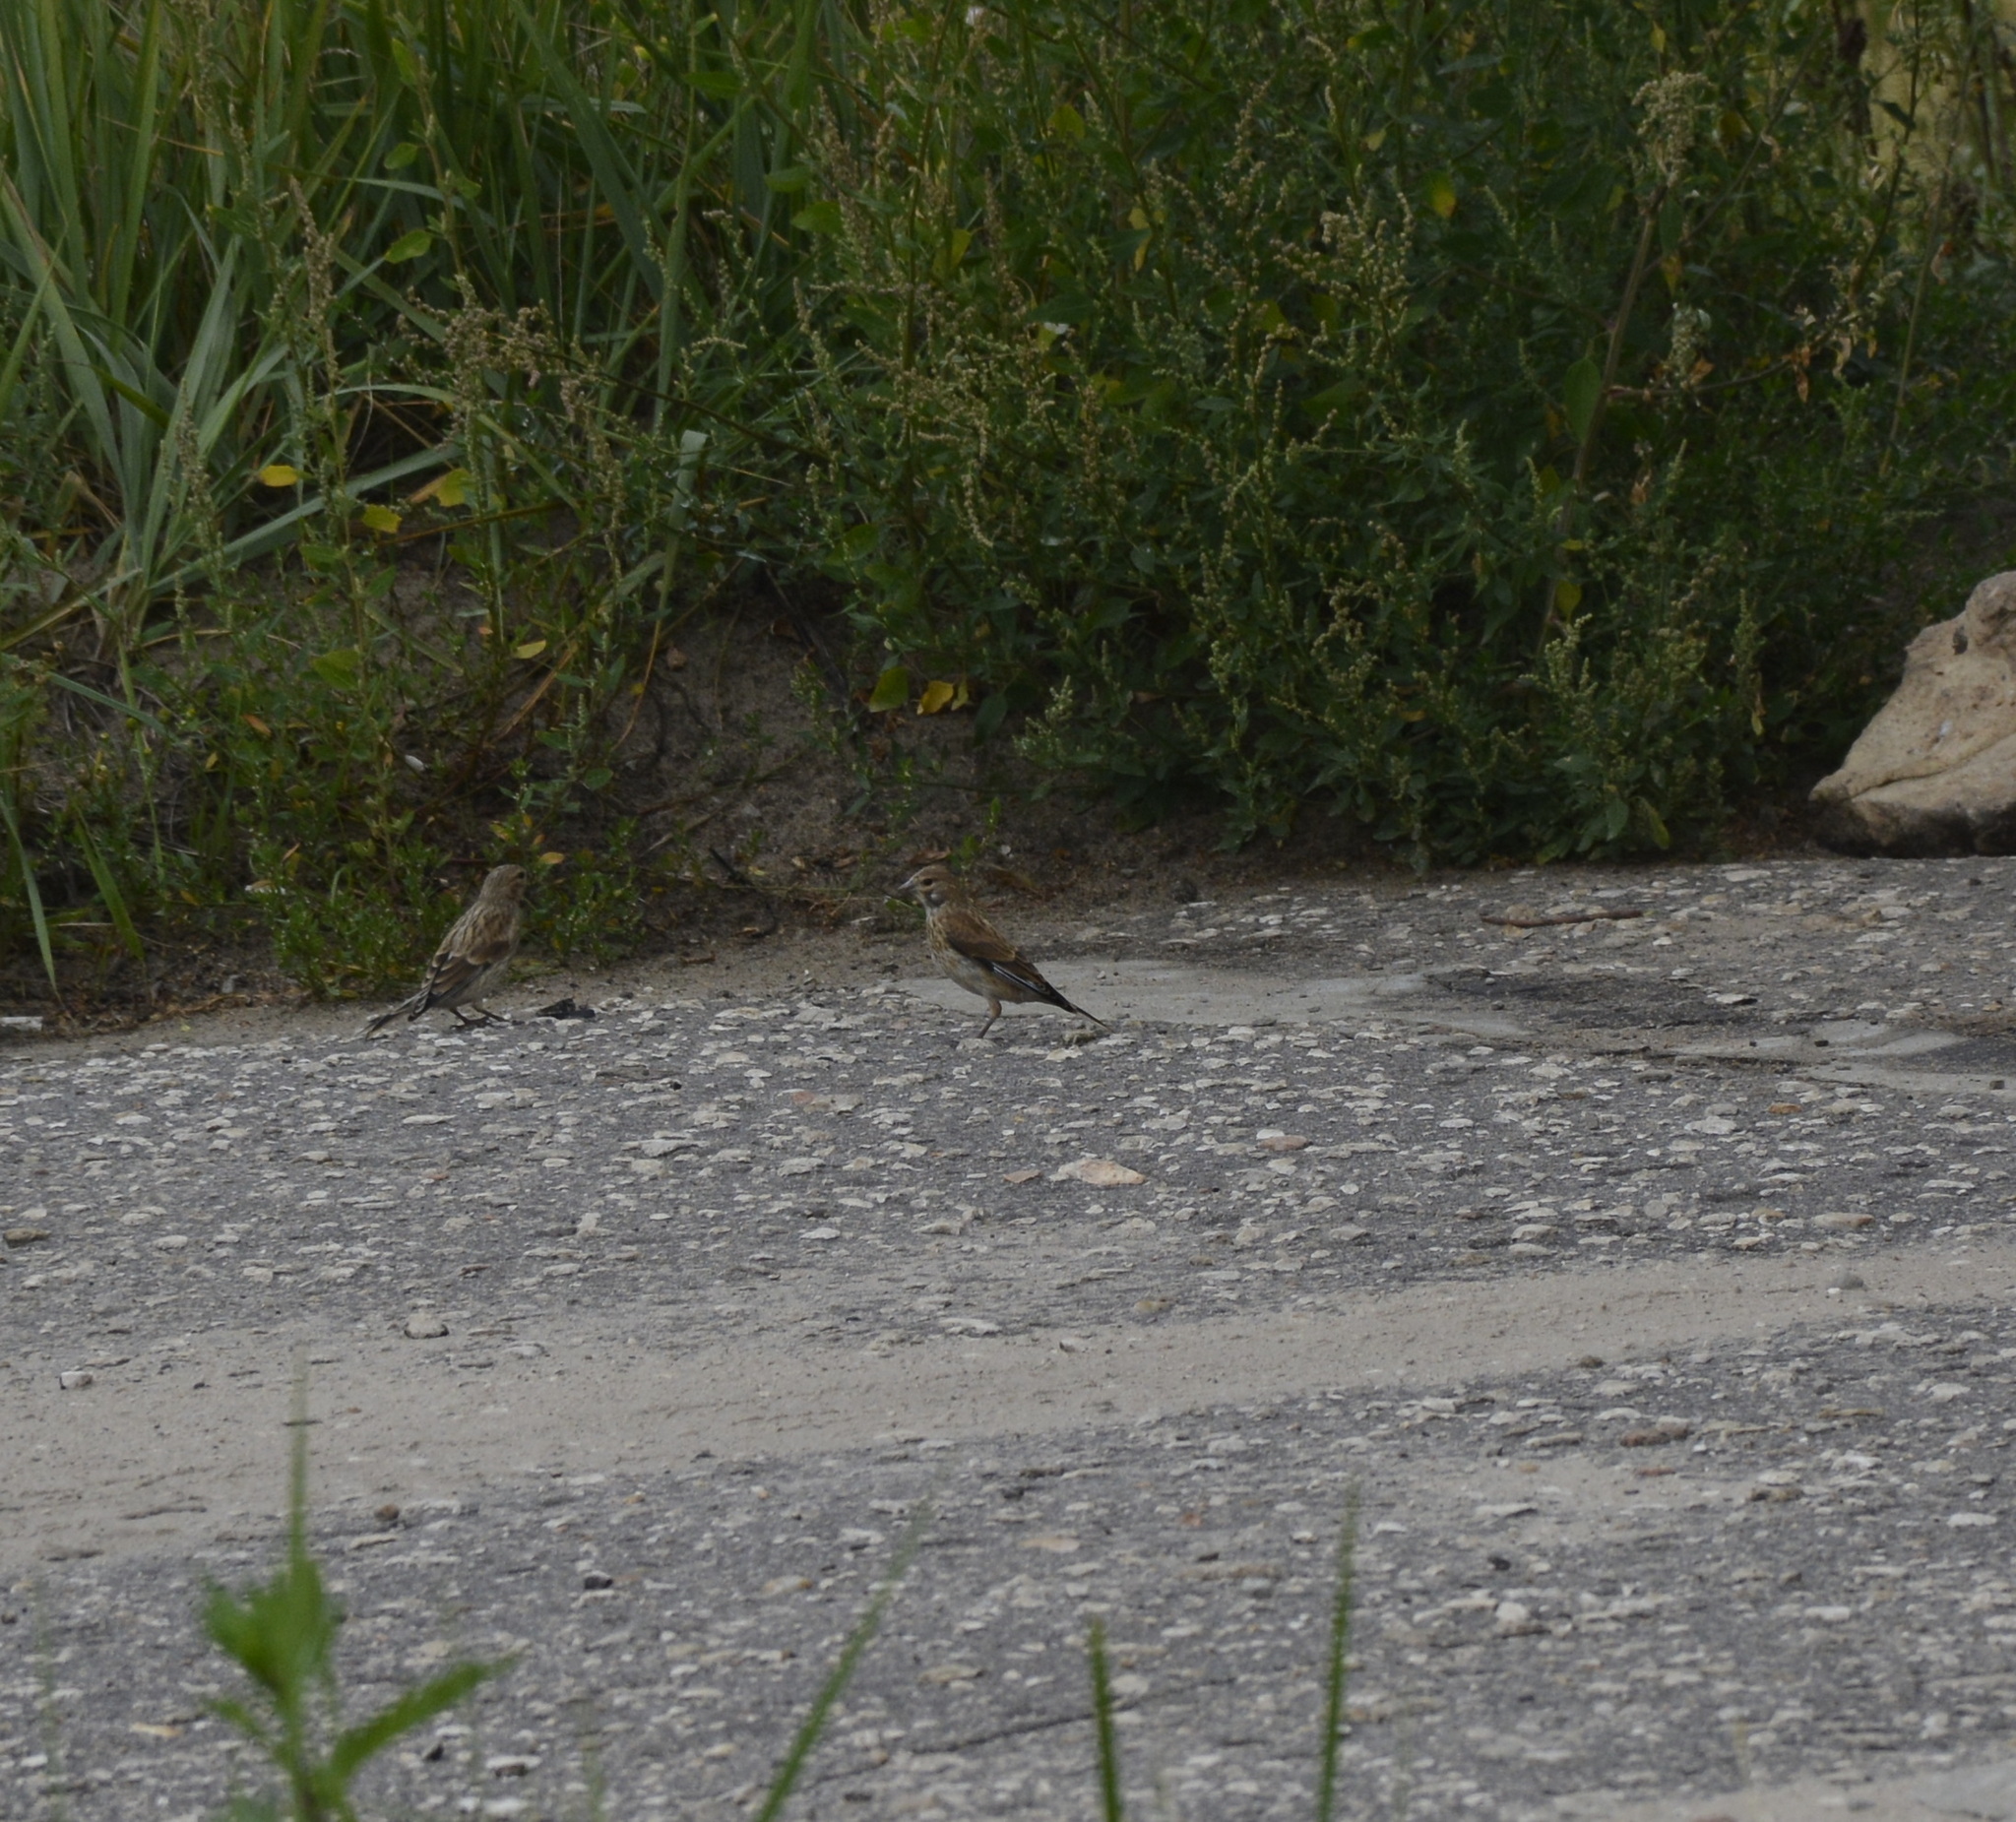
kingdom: Animalia
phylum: Chordata
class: Aves
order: Passeriformes
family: Fringillidae
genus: Linaria
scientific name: Linaria cannabina
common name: Common linnet
